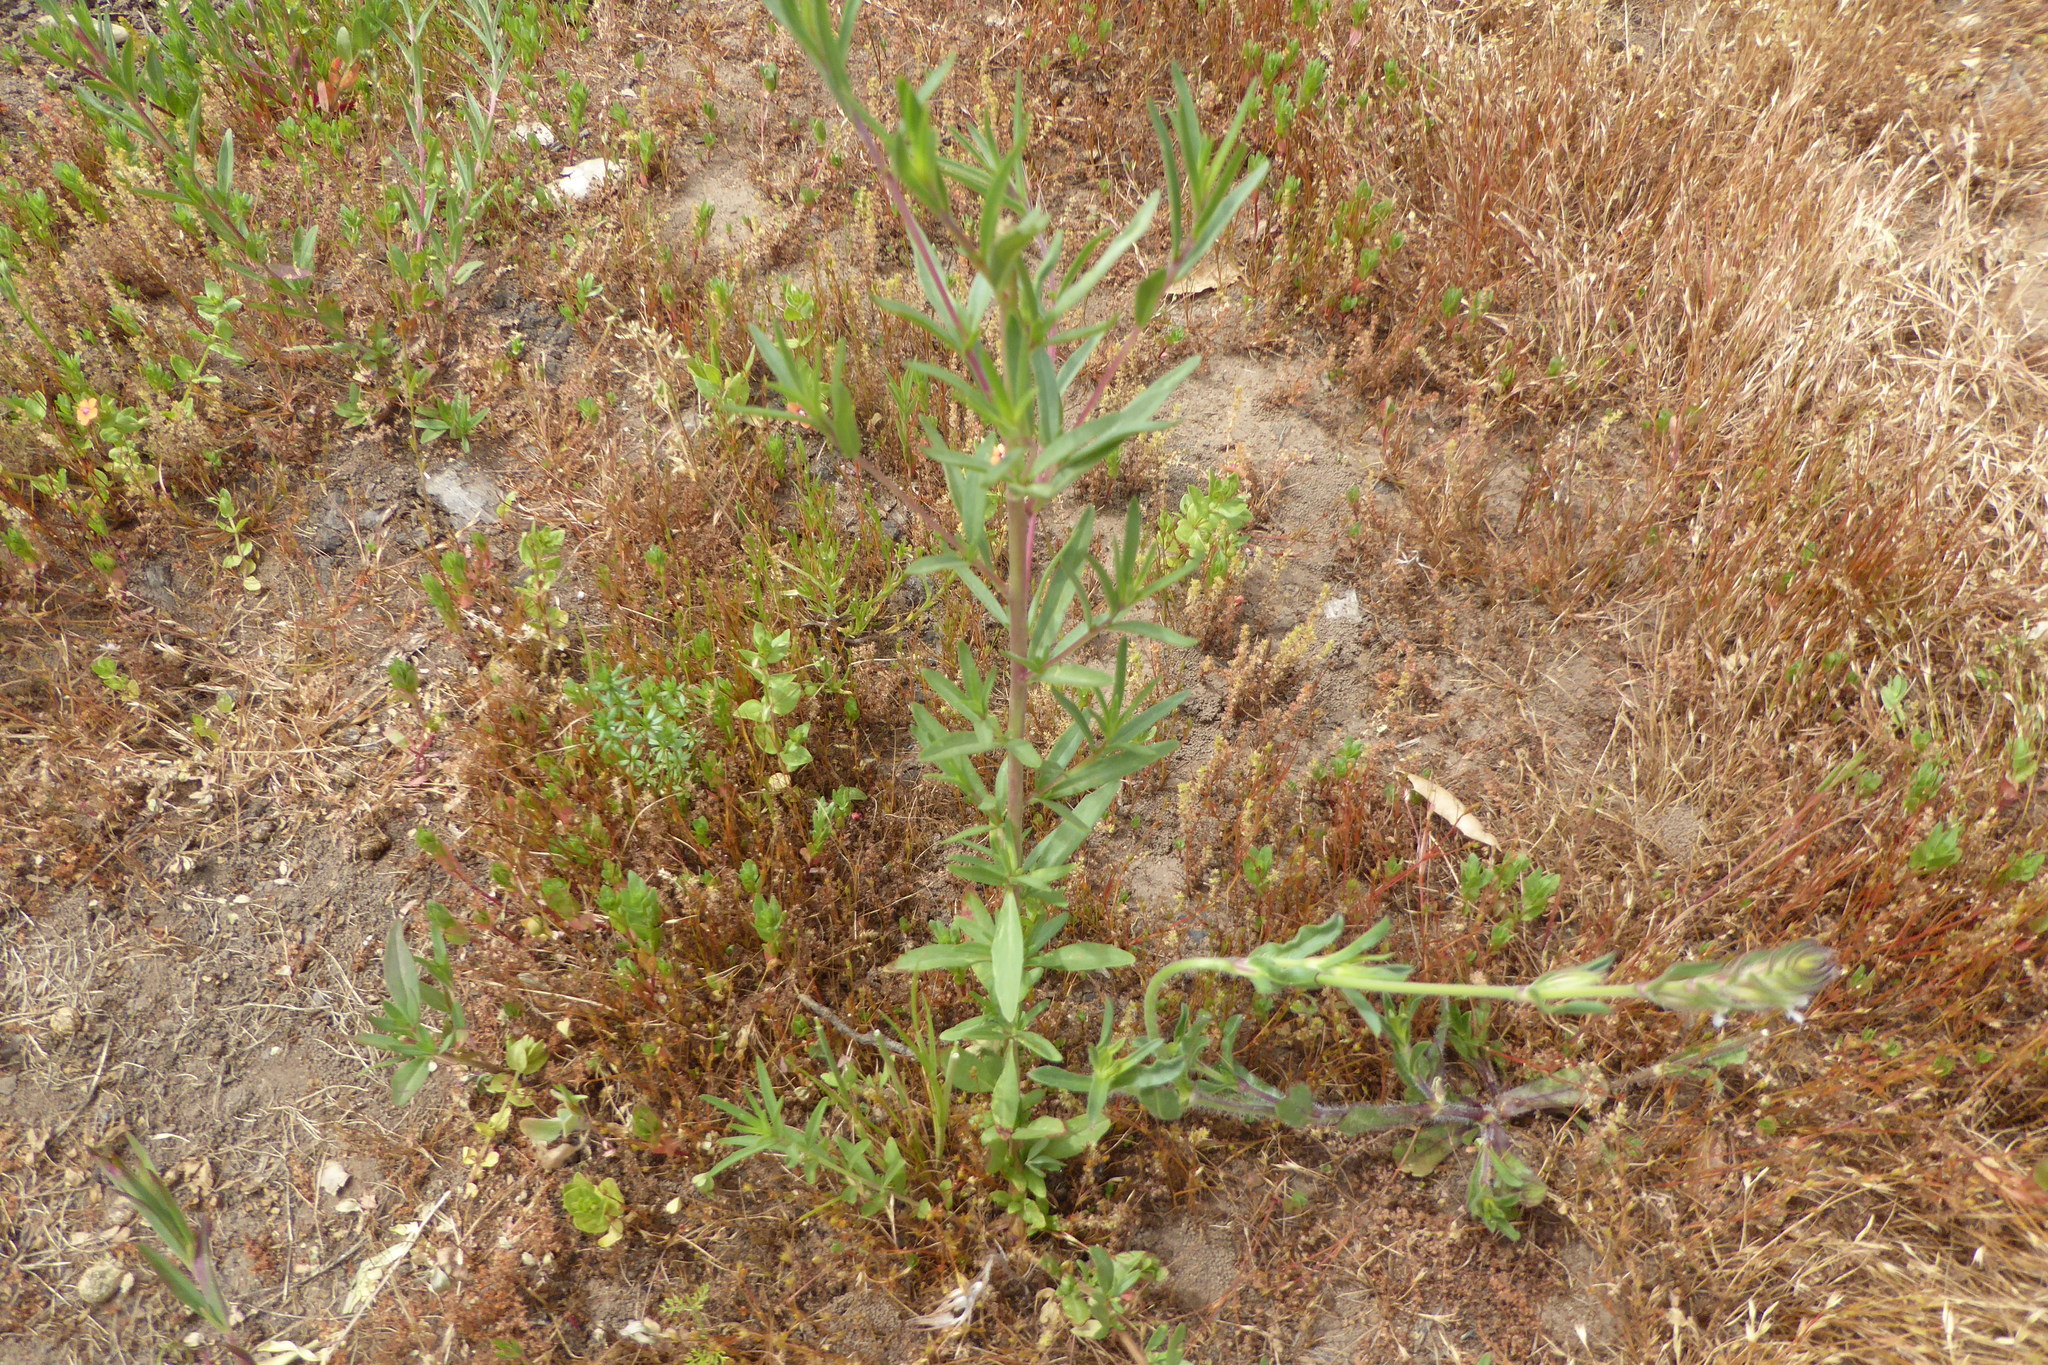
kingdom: Plantae
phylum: Tracheophyta
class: Magnoliopsida
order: Caryophyllales
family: Caryophyllaceae
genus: Silene
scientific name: Silene gallica
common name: Small-flowered catchfly
